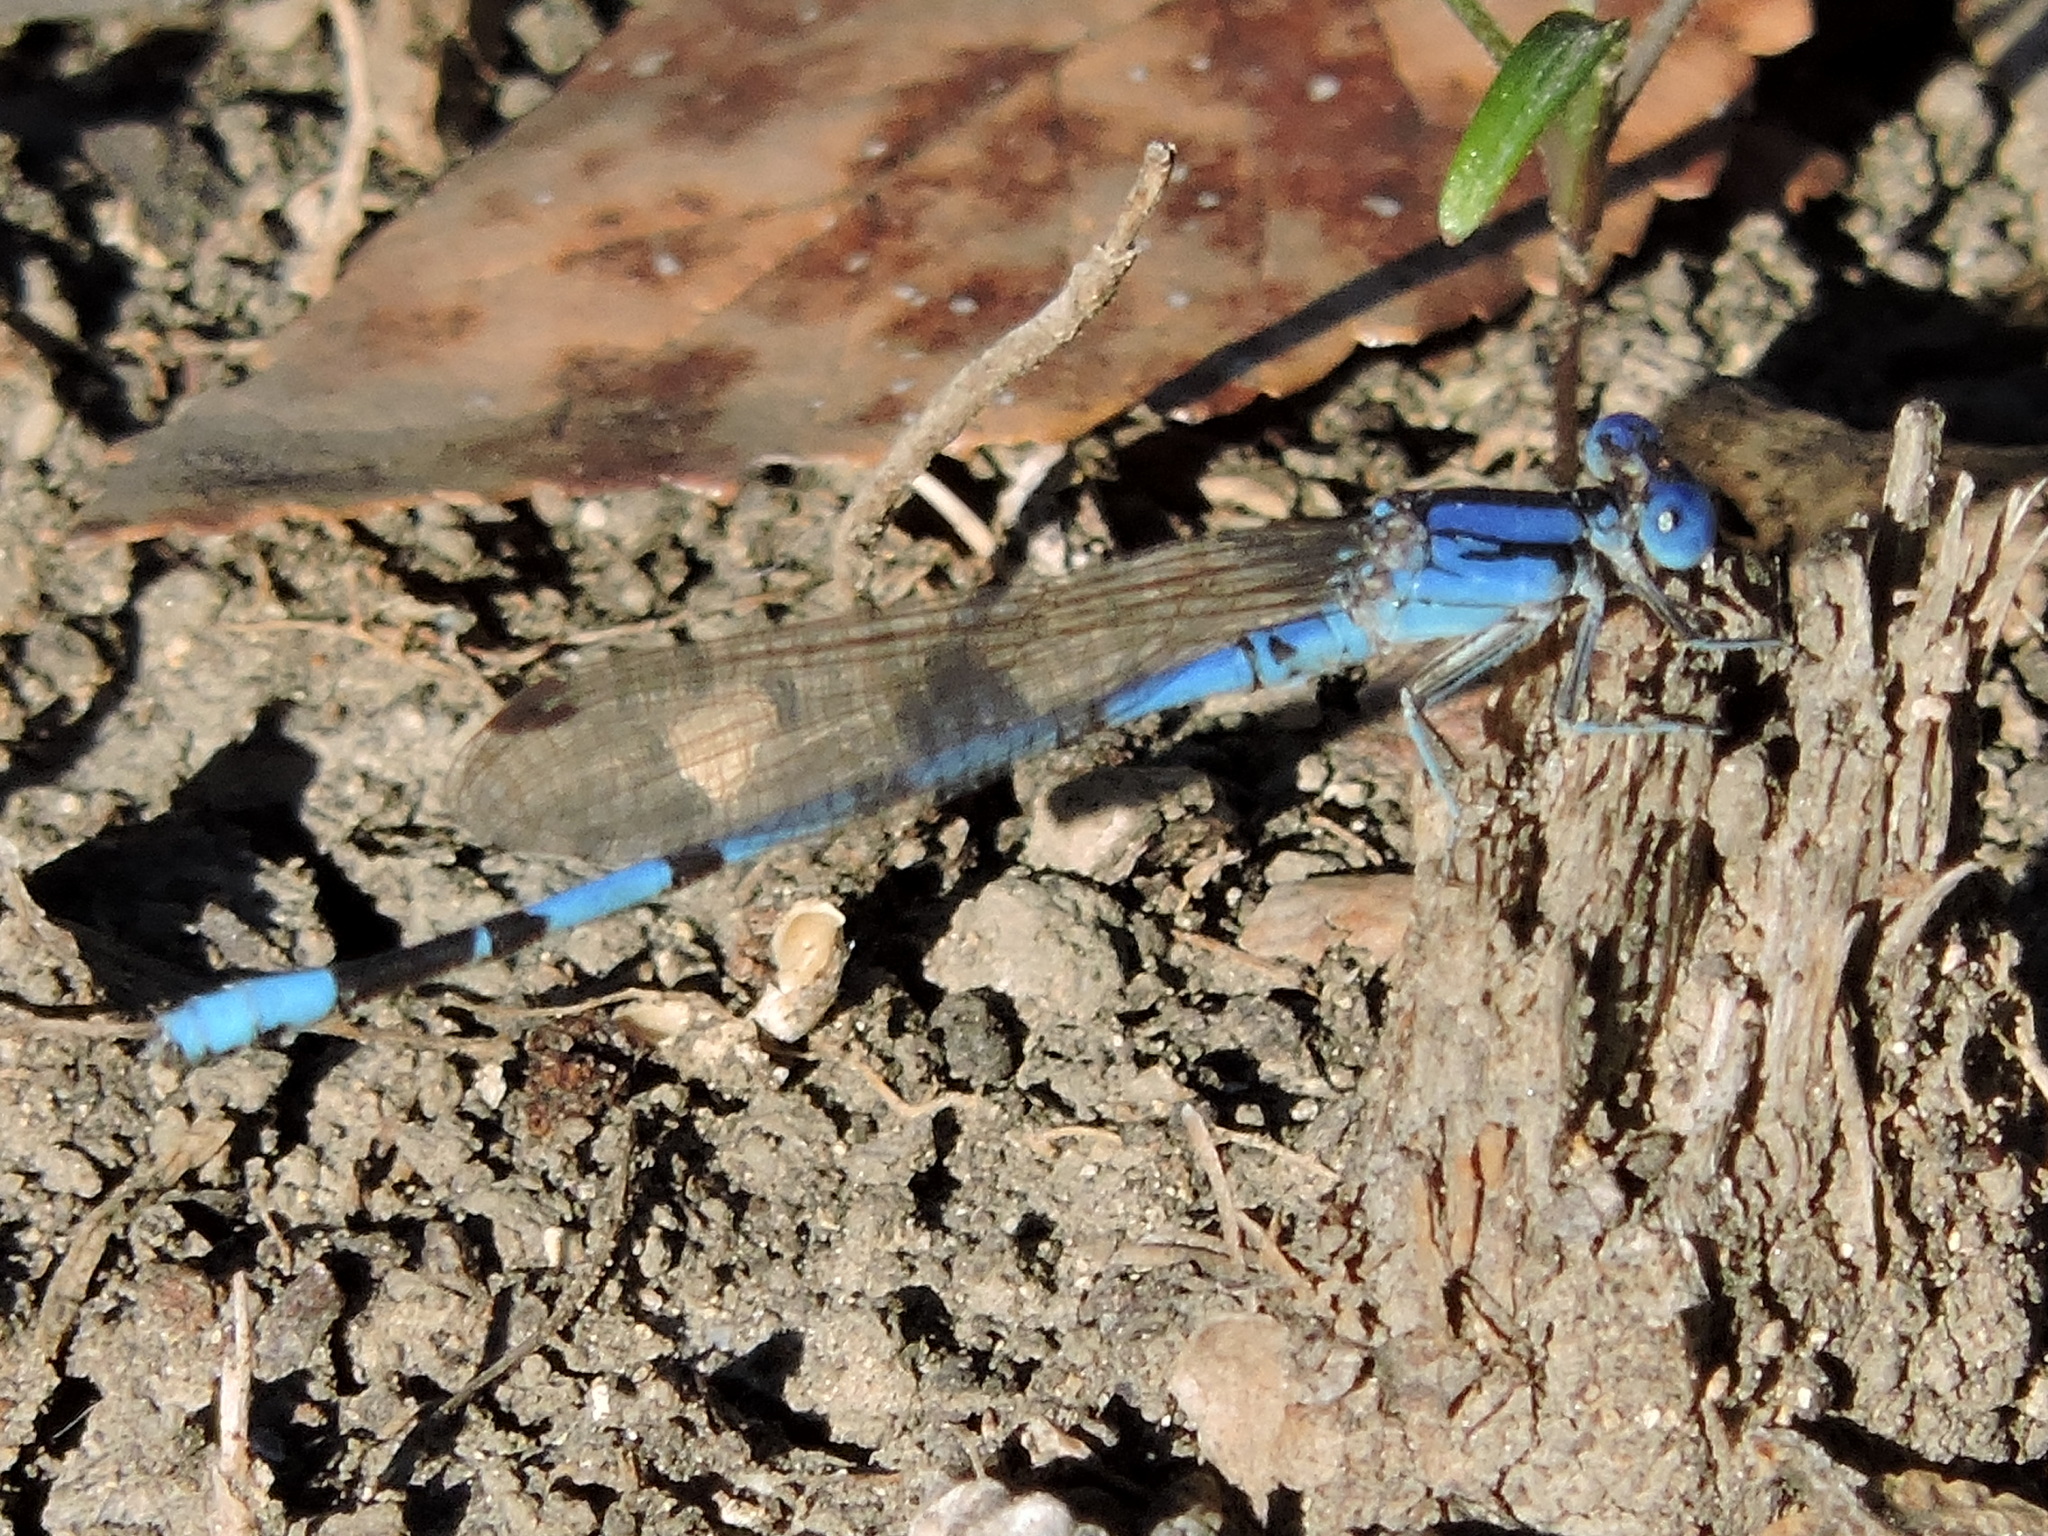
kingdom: Animalia
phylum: Arthropoda
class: Insecta
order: Odonata
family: Coenagrionidae
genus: Argia
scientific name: Argia nahuana
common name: Aztec dancer
